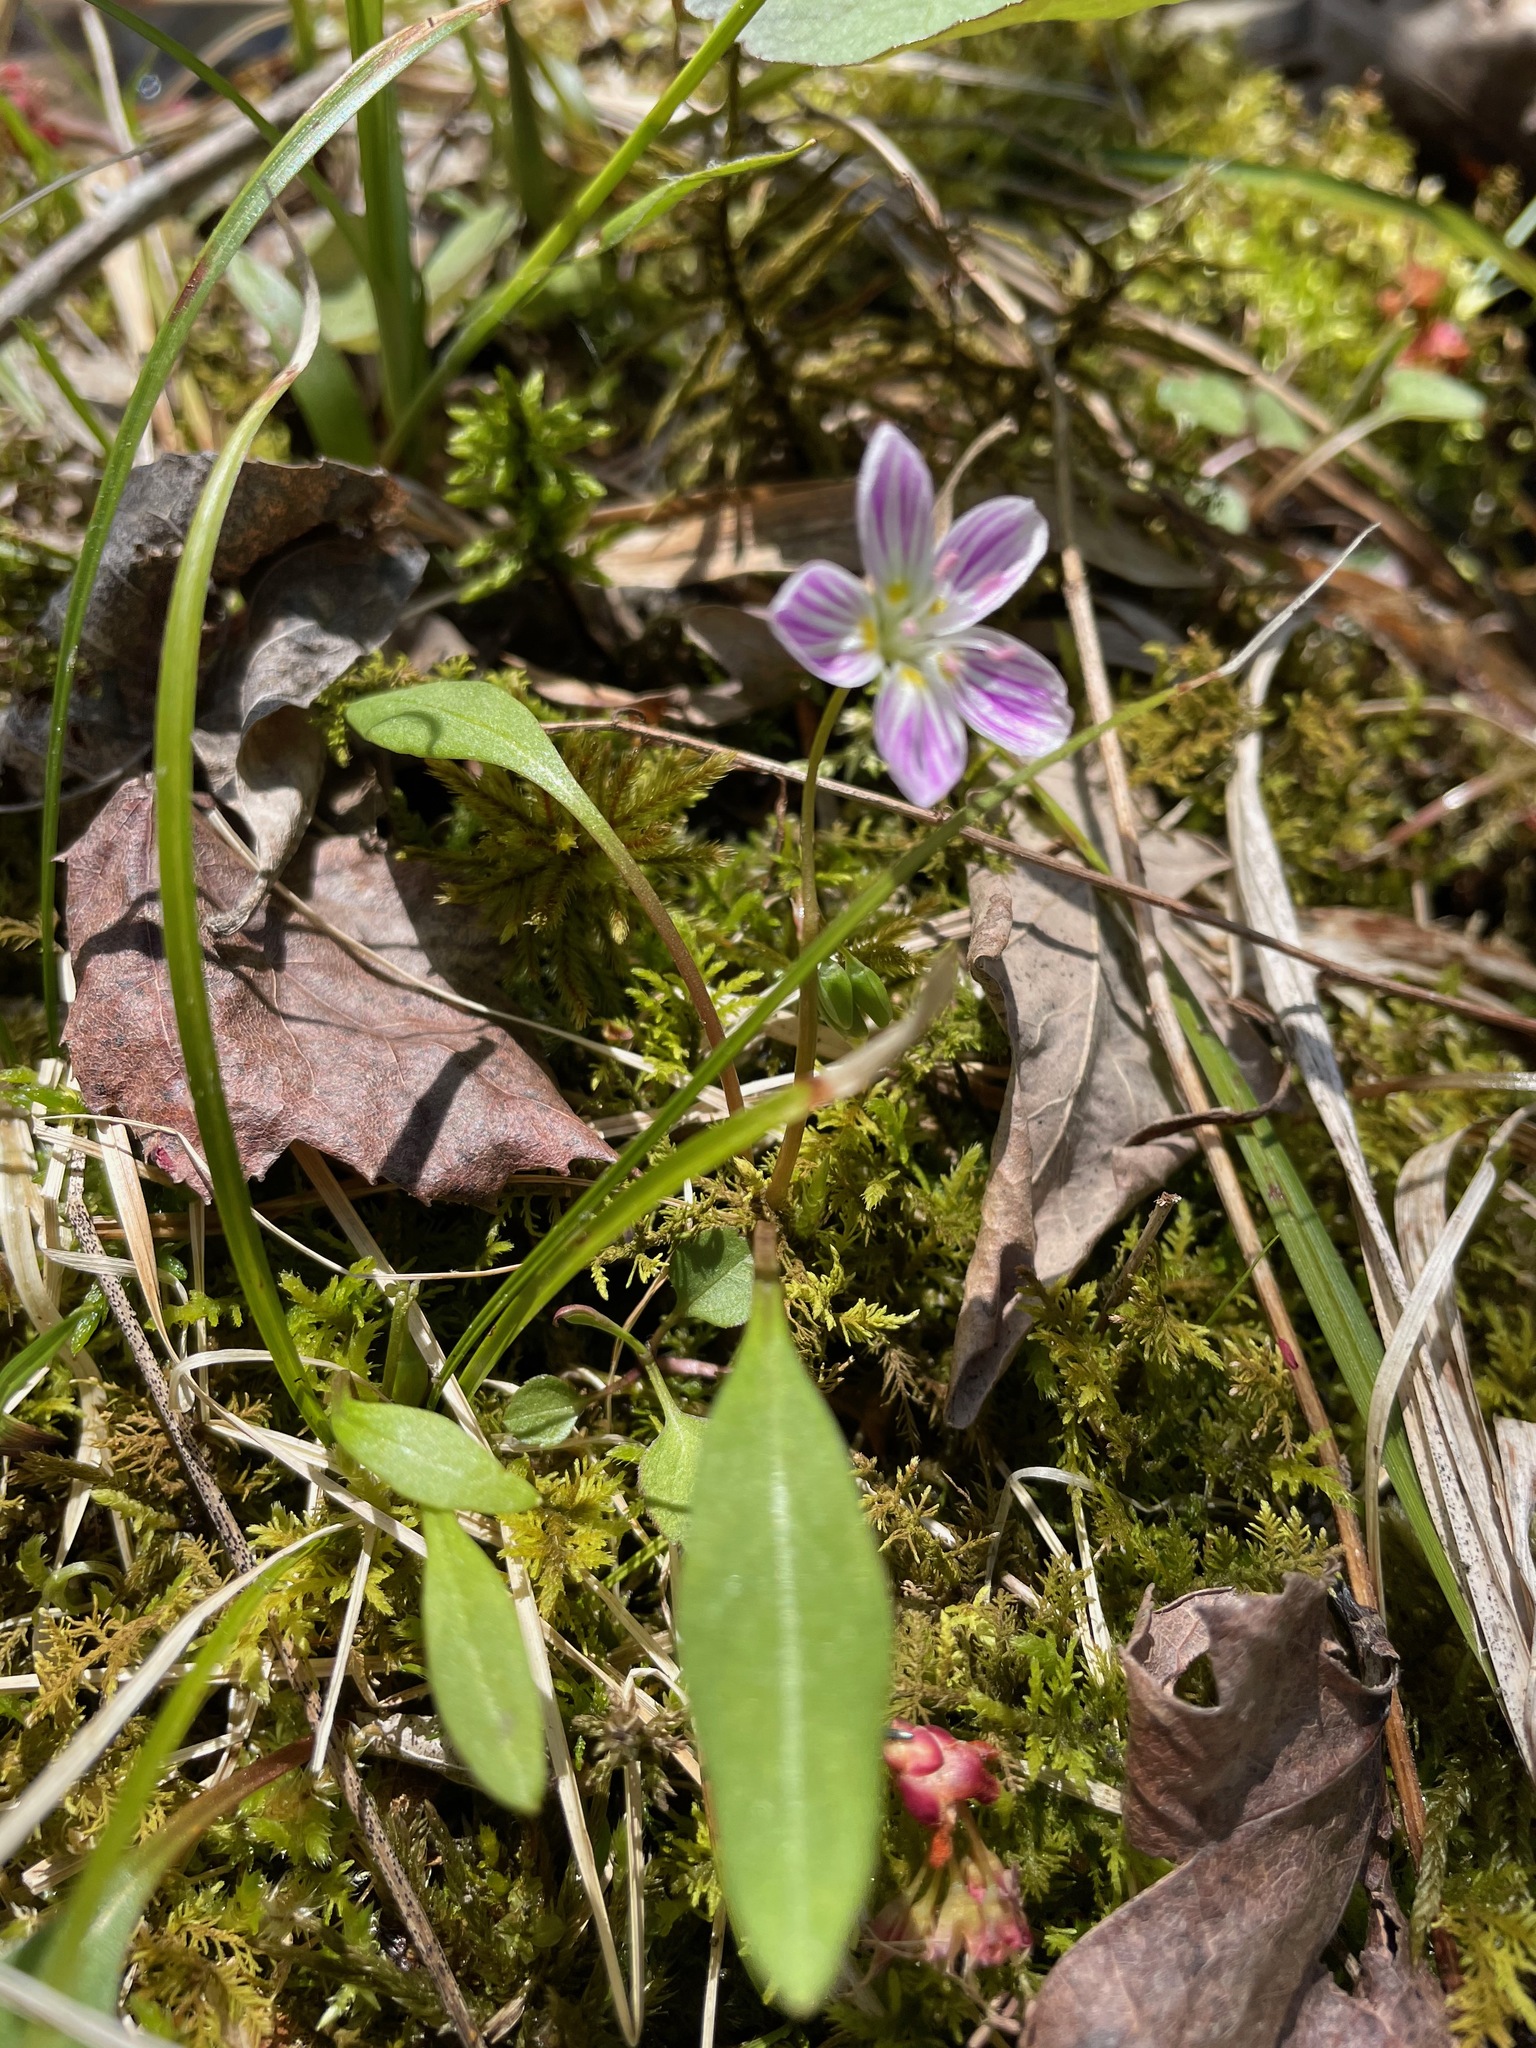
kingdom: Plantae
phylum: Tracheophyta
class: Magnoliopsida
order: Caryophyllales
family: Montiaceae
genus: Claytonia
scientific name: Claytonia caroliniana
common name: Carolina spring beauty
